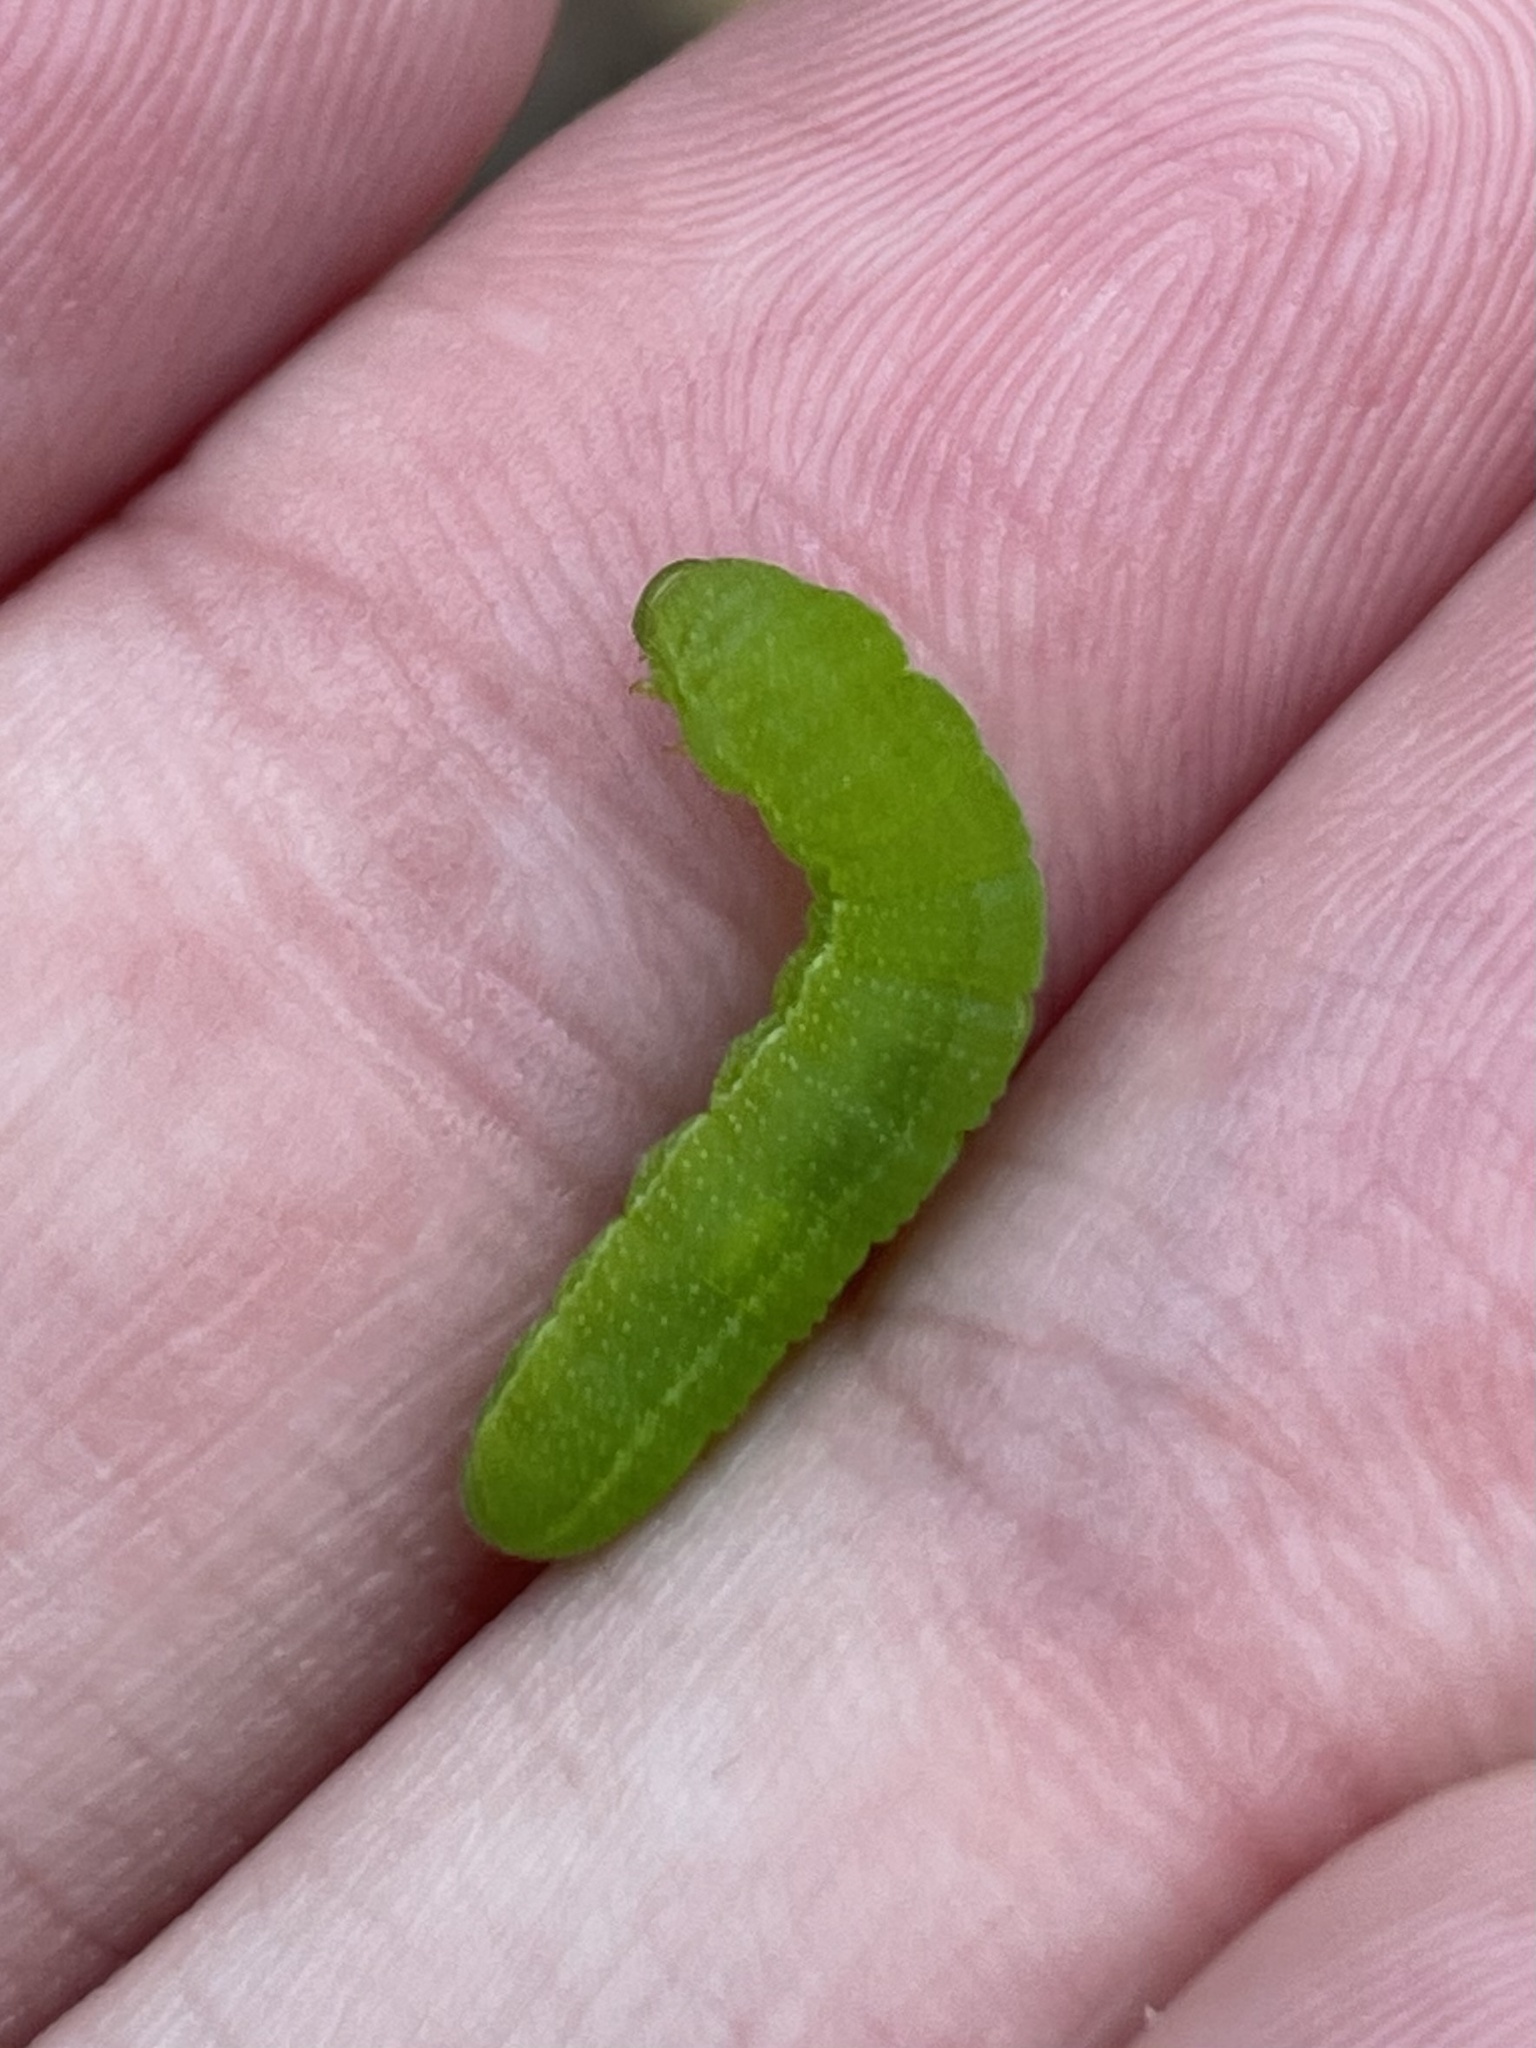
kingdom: Animalia
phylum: Arthropoda
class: Insecta
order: Lepidoptera
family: Nymphalidae
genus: Libytheana
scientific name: Libytheana carinenta
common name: American snout
